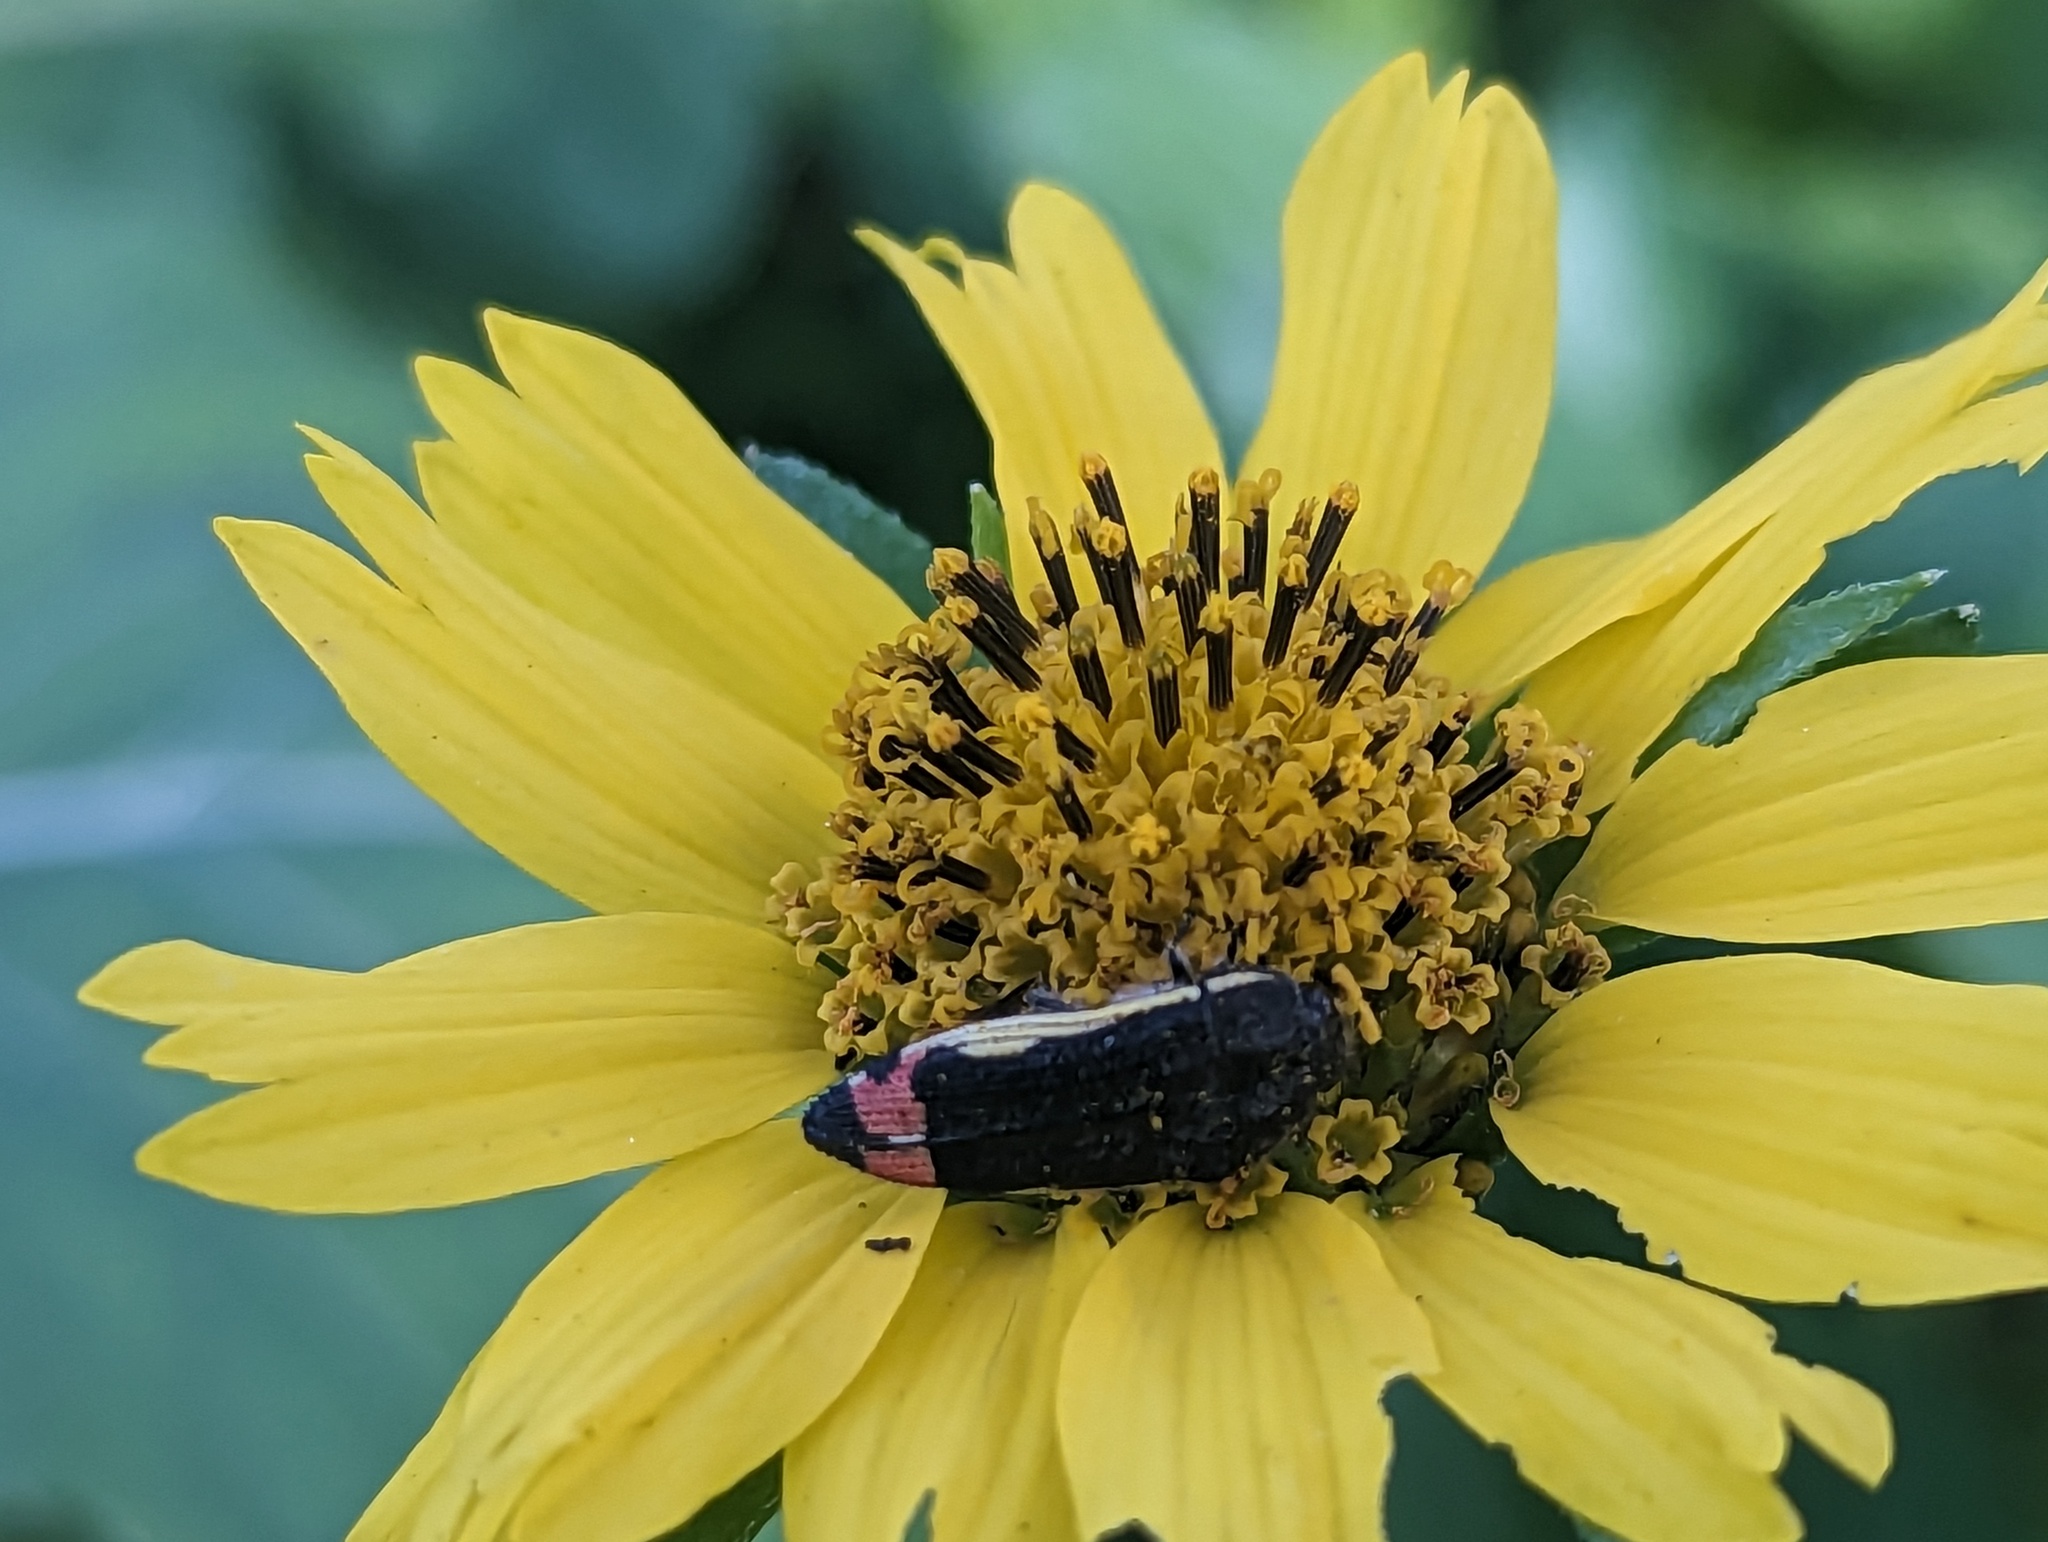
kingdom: Animalia
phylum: Arthropoda
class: Insecta
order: Coleoptera
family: Buprestidae
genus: Acmaeodera
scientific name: Acmaeodera flavomarginata
